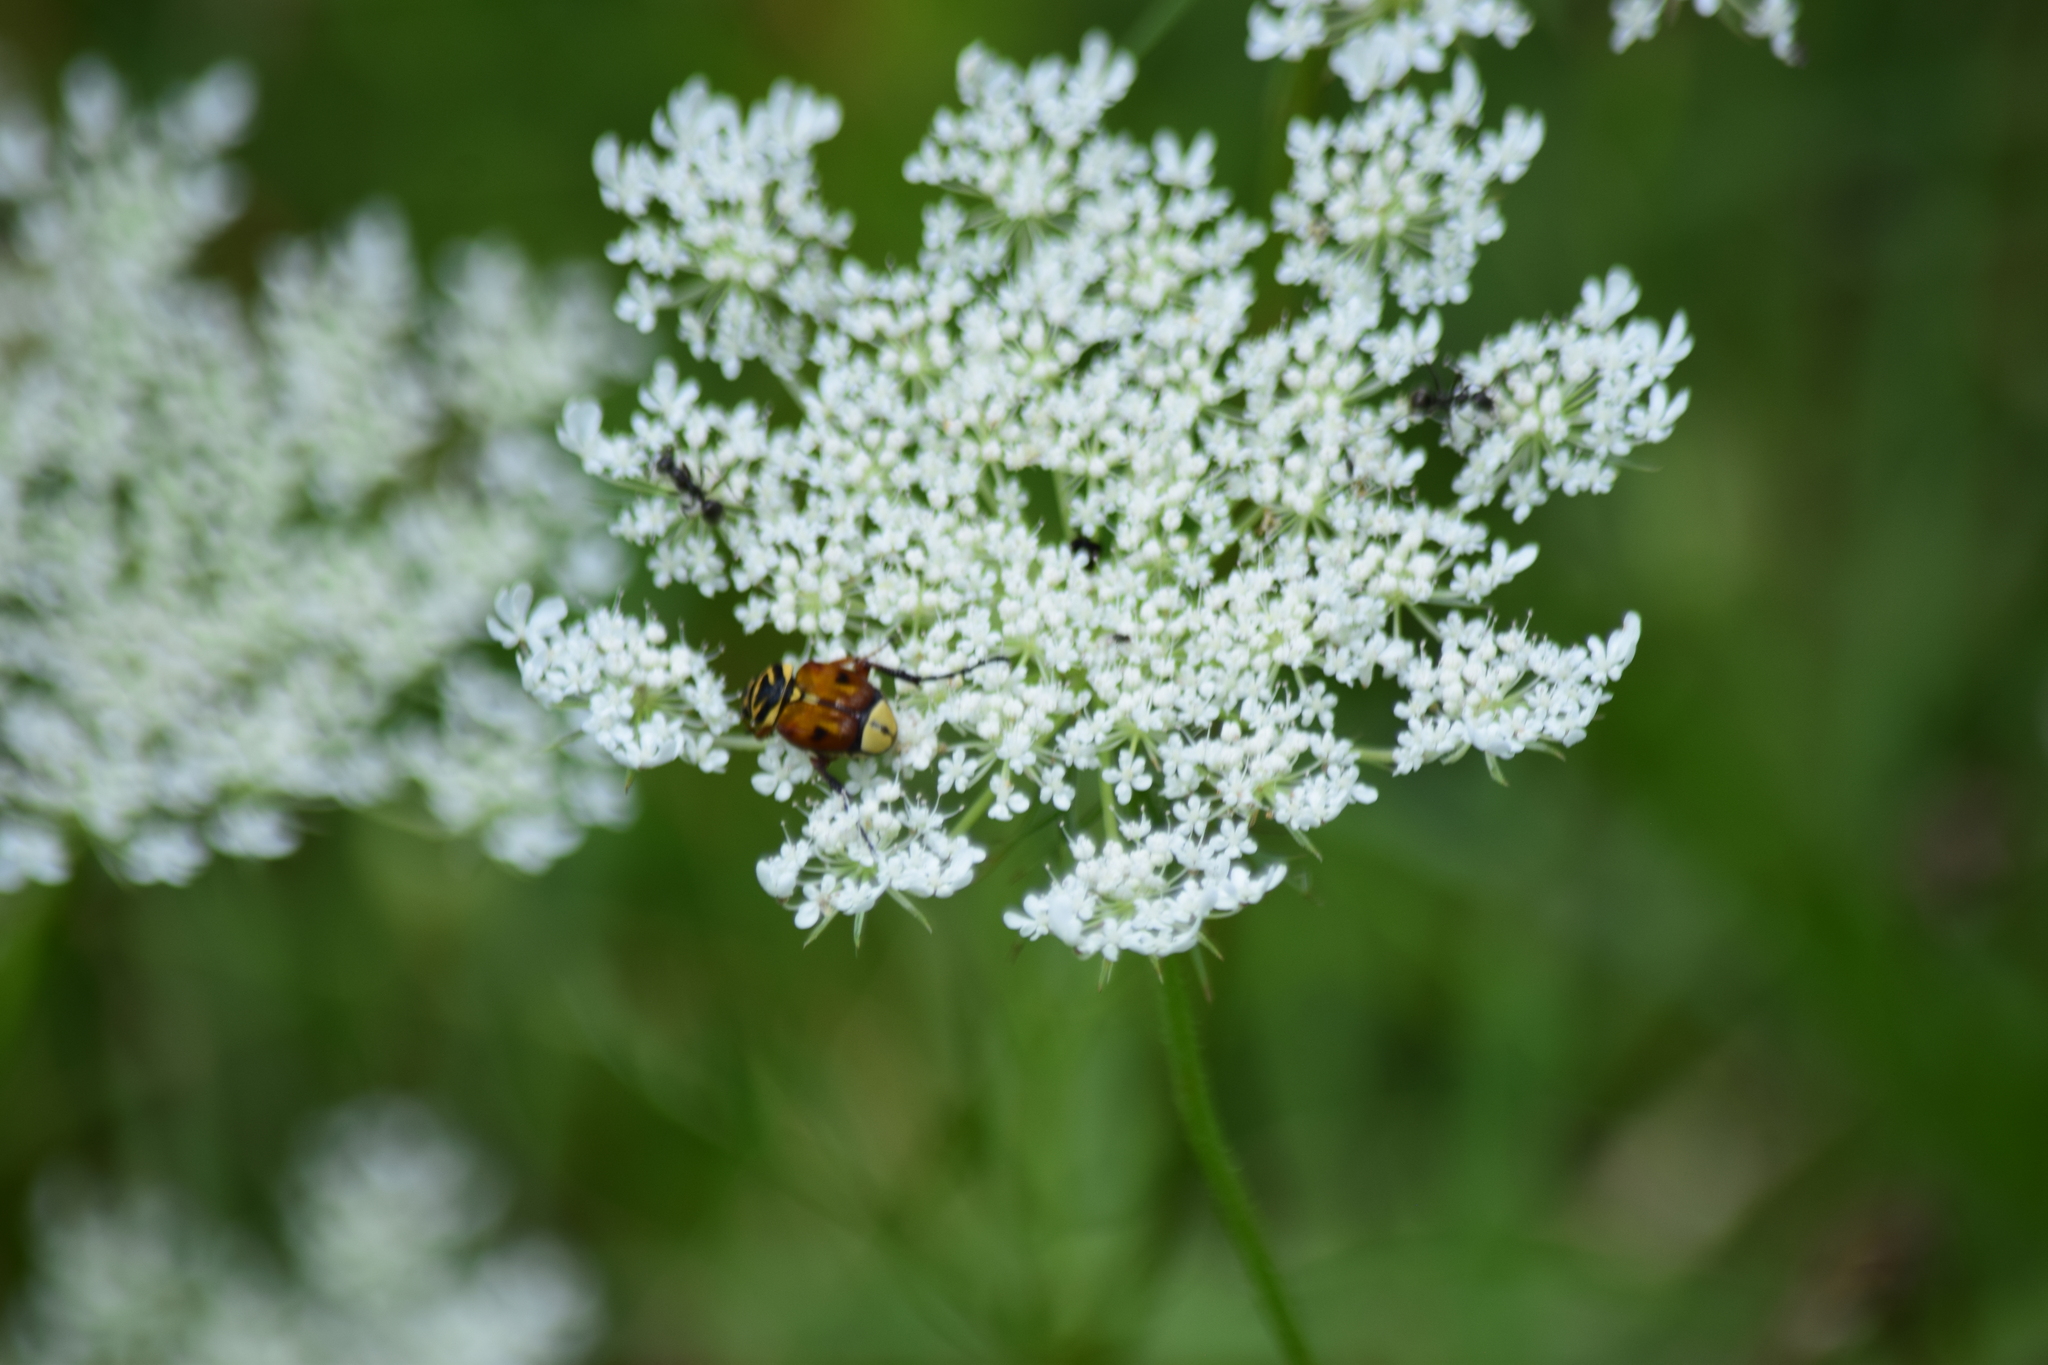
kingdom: Animalia
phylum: Arthropoda
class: Insecta
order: Coleoptera
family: Scarabaeidae
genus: Trigonopeltastes
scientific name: Trigonopeltastes delta
